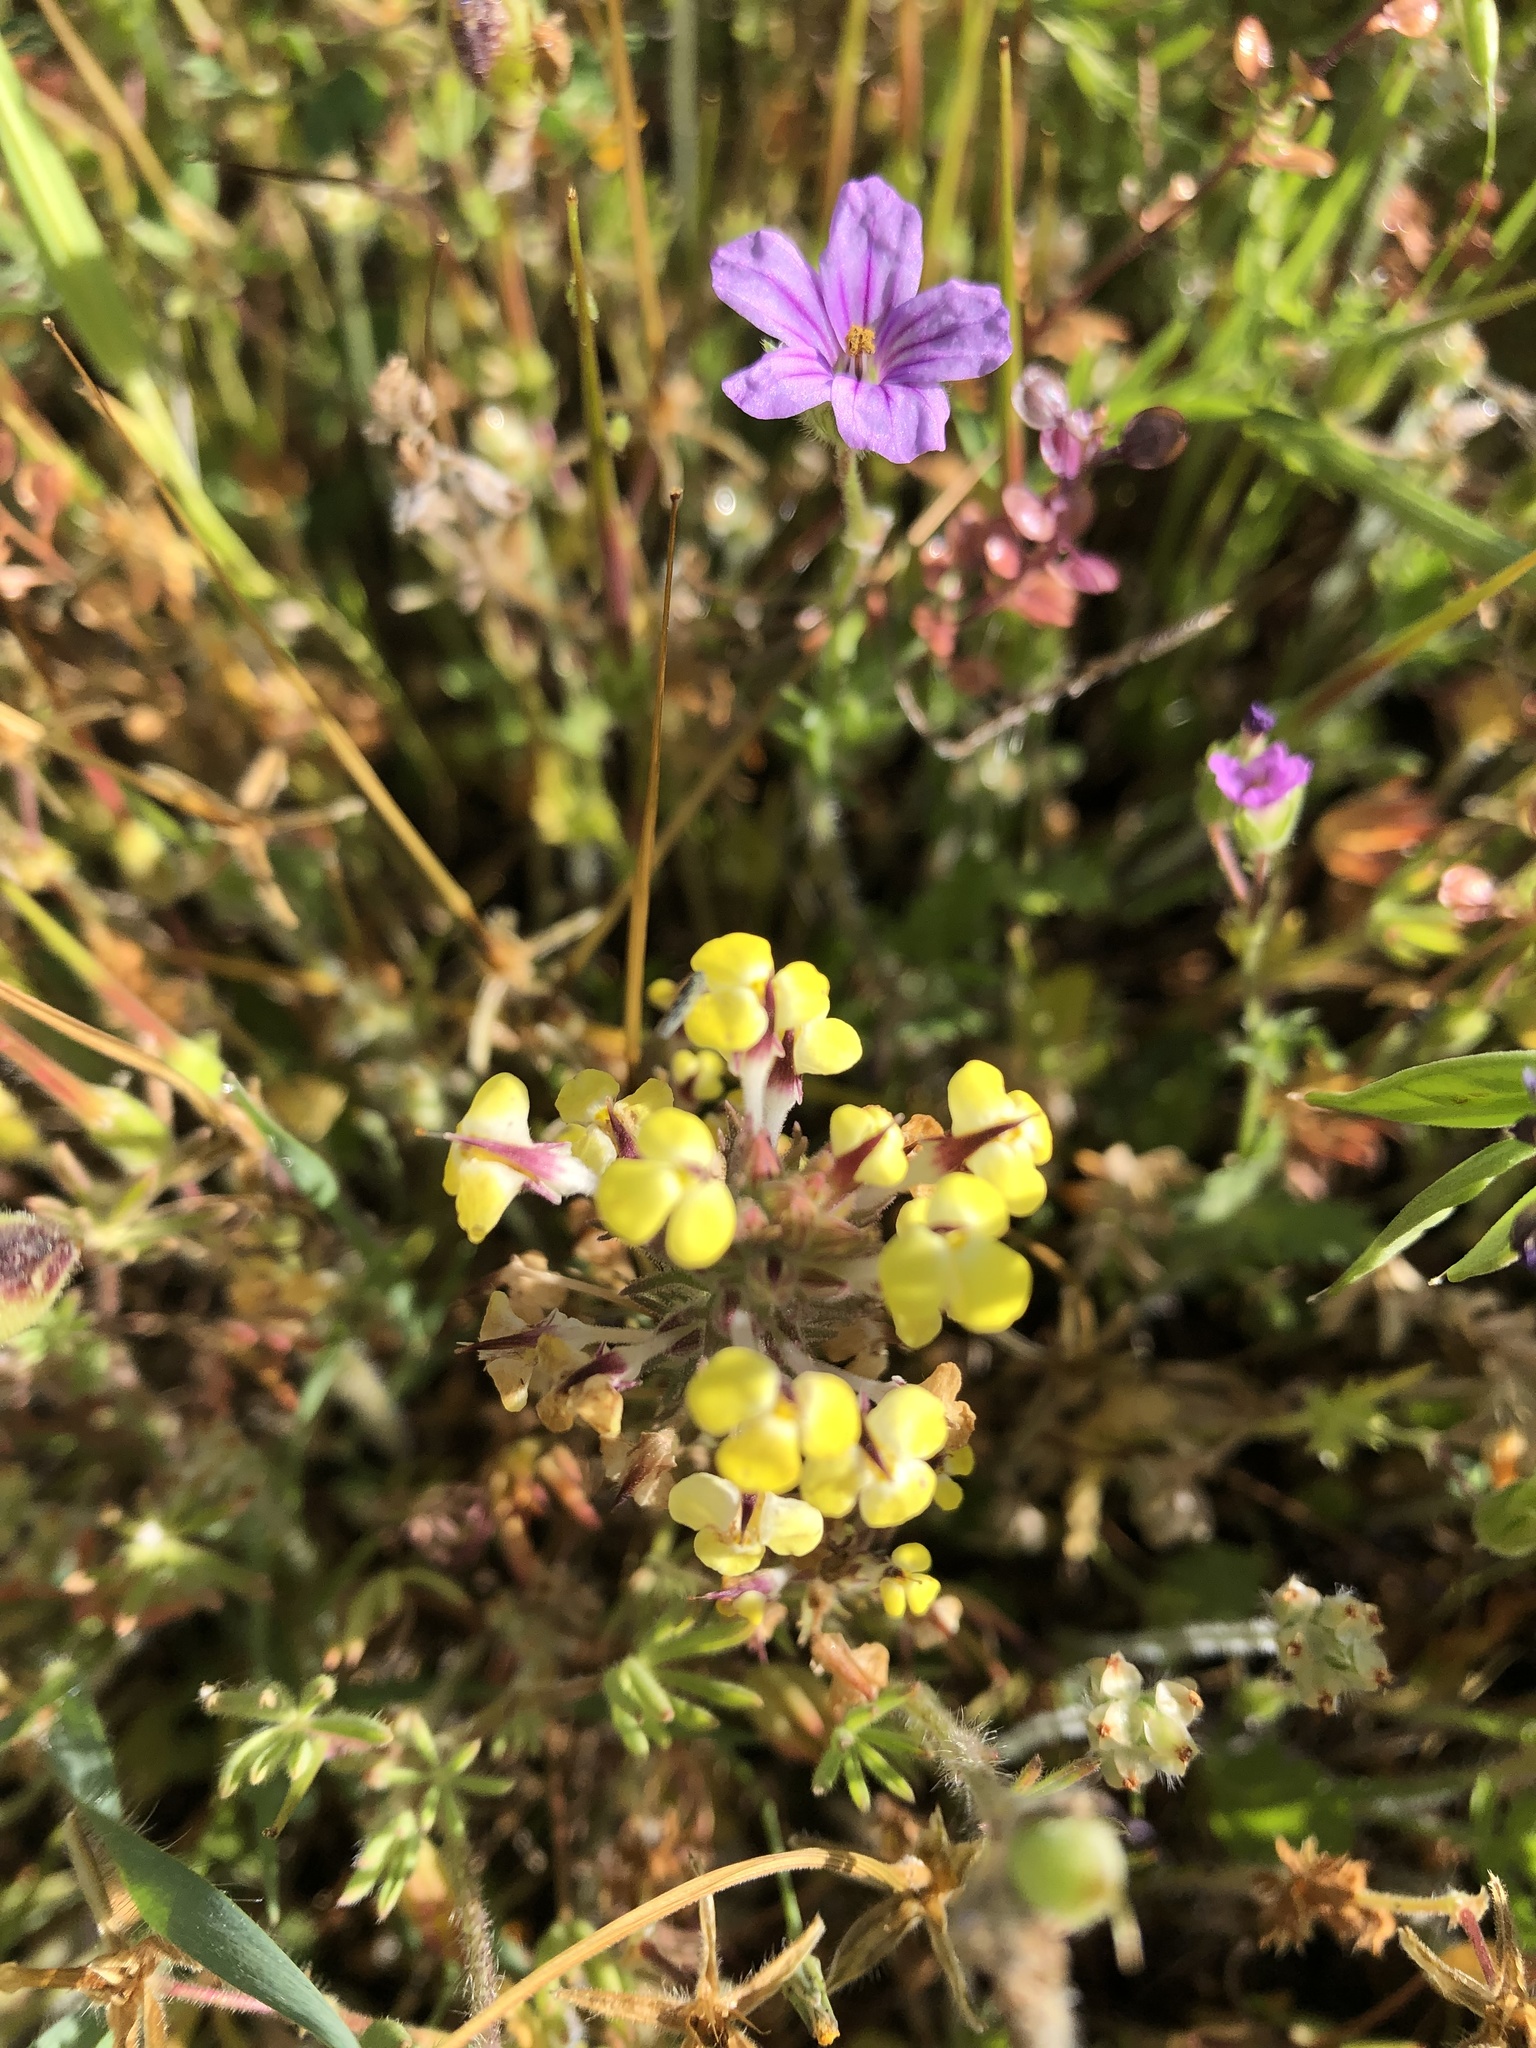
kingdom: Plantae
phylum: Tracheophyta
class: Magnoliopsida
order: Lamiales
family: Orobanchaceae
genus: Triphysaria
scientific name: Triphysaria eriantha
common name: Johnny-tuck
